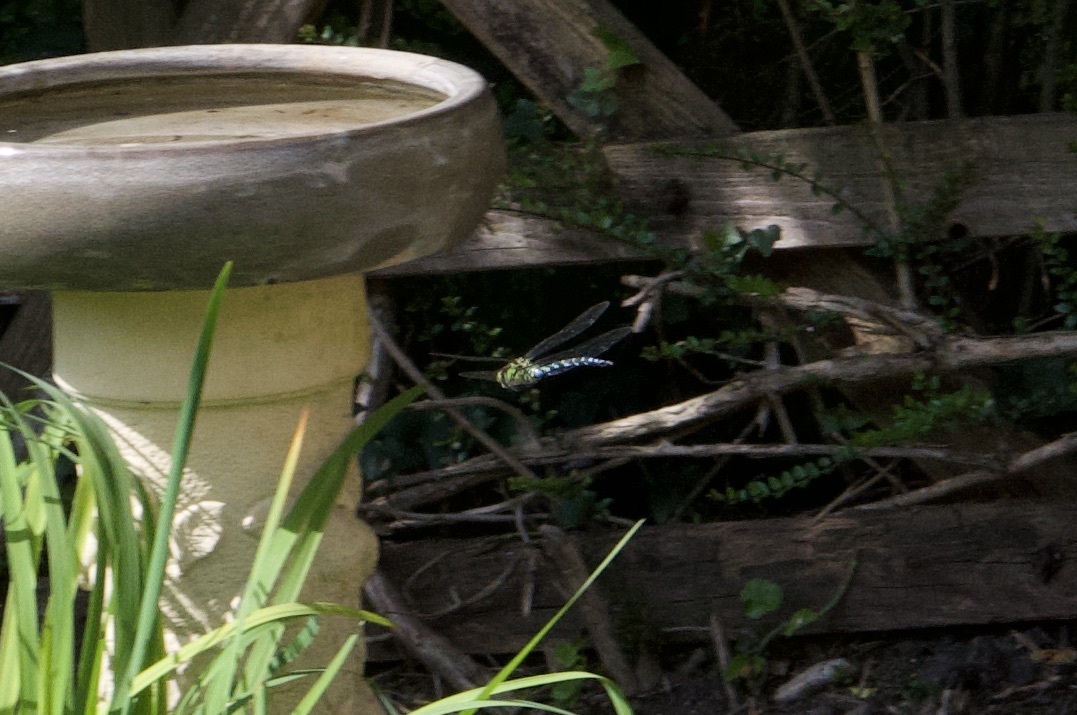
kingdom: Animalia
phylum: Arthropoda
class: Insecta
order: Odonata
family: Aeshnidae
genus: Aeshna
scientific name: Aeshna cyanea
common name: Southern hawker
